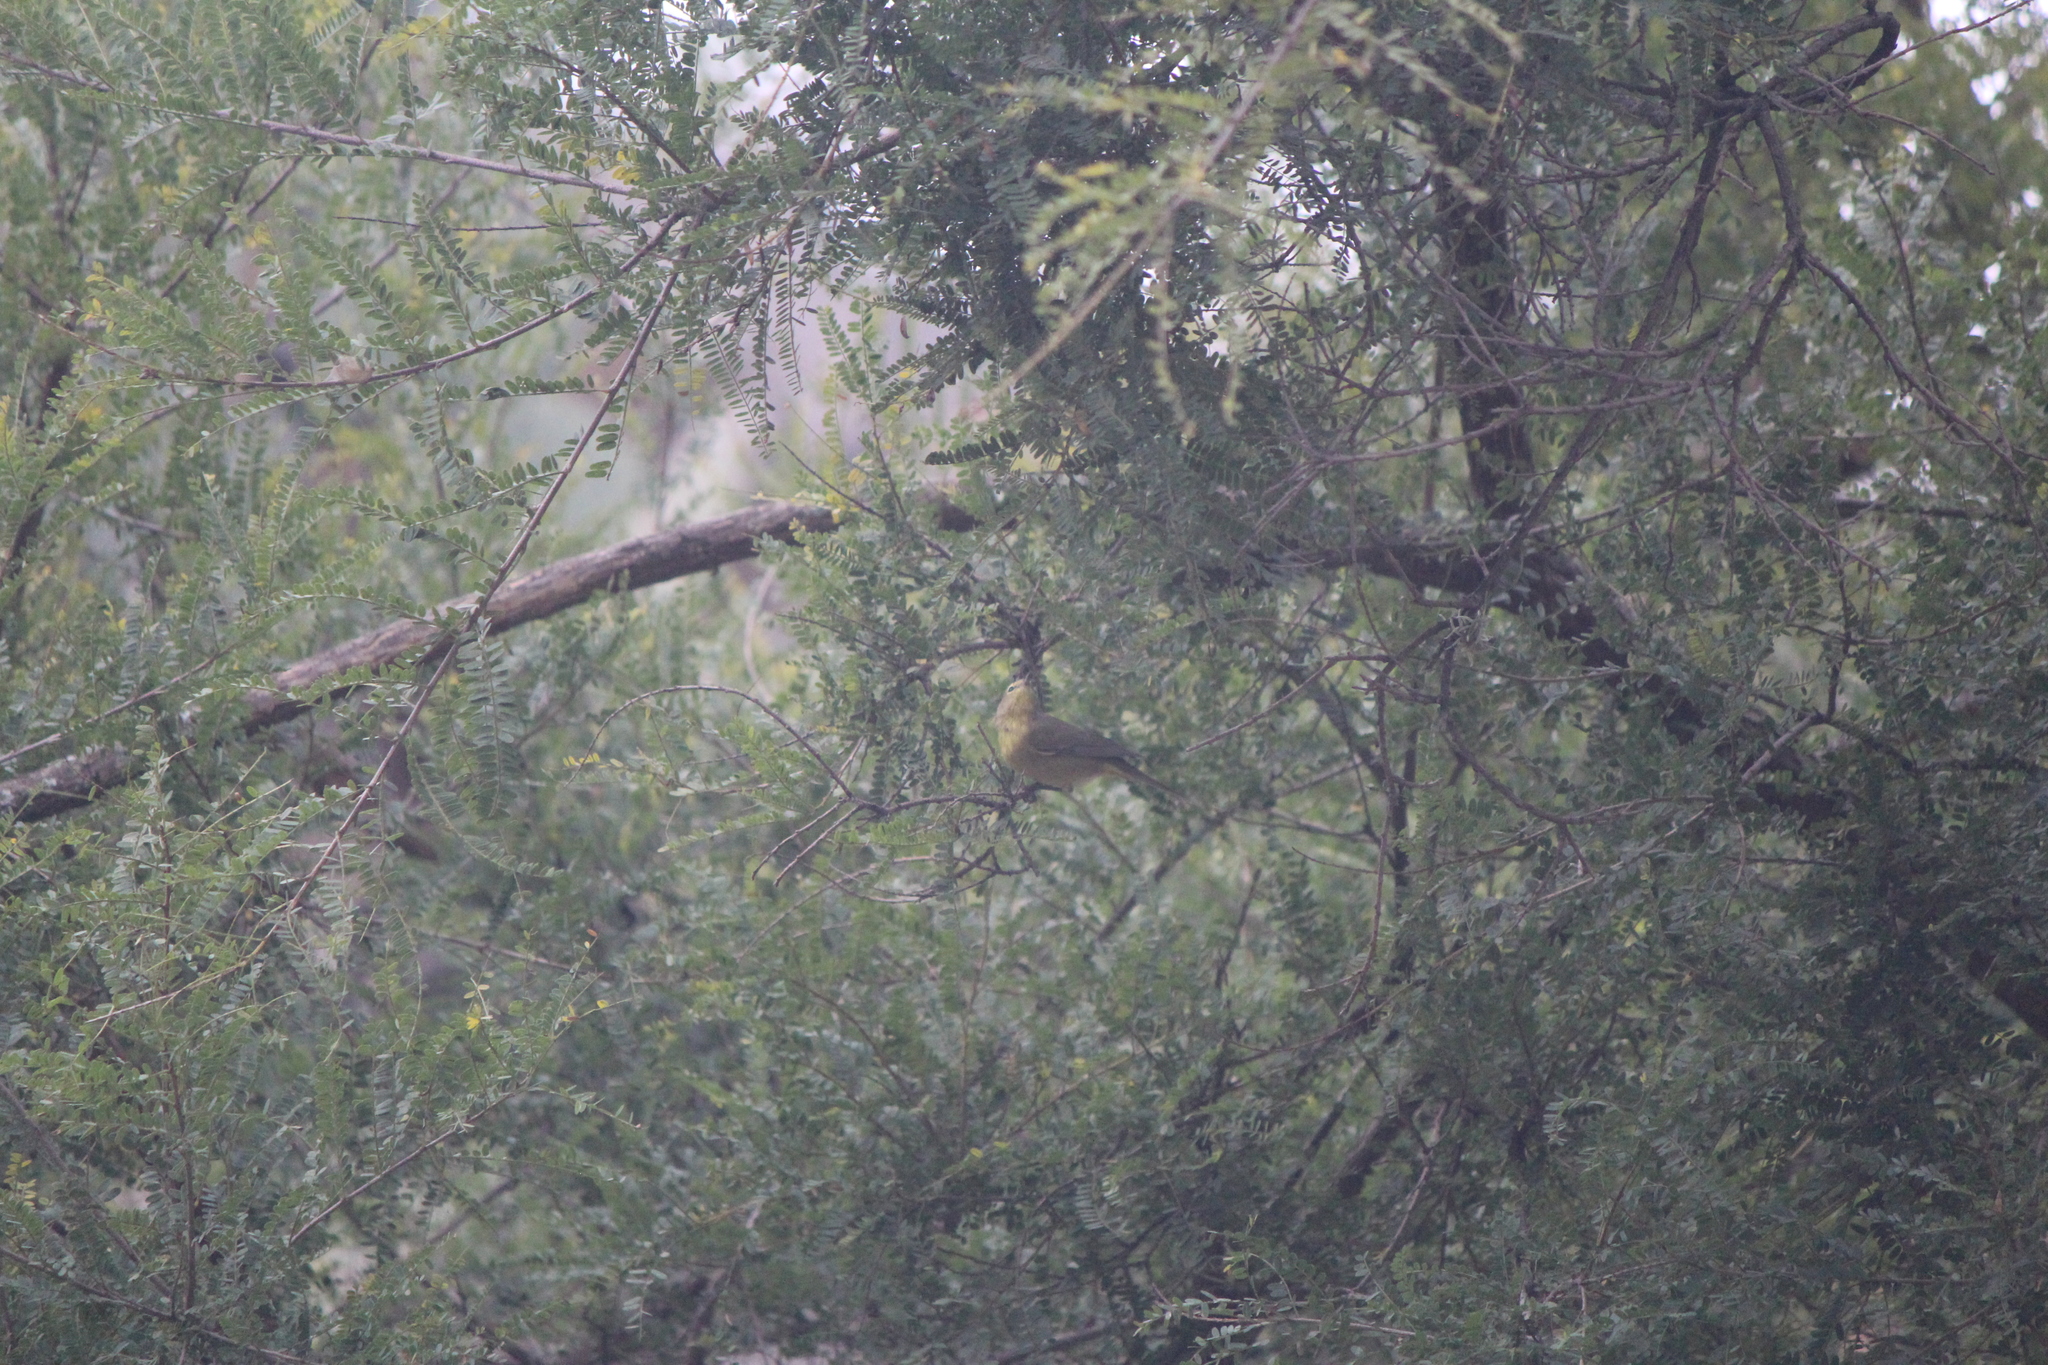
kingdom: Animalia
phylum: Chordata
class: Aves
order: Passeriformes
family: Parulidae
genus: Leiothlypis
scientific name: Leiothlypis celata
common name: Orange-crowned warbler
